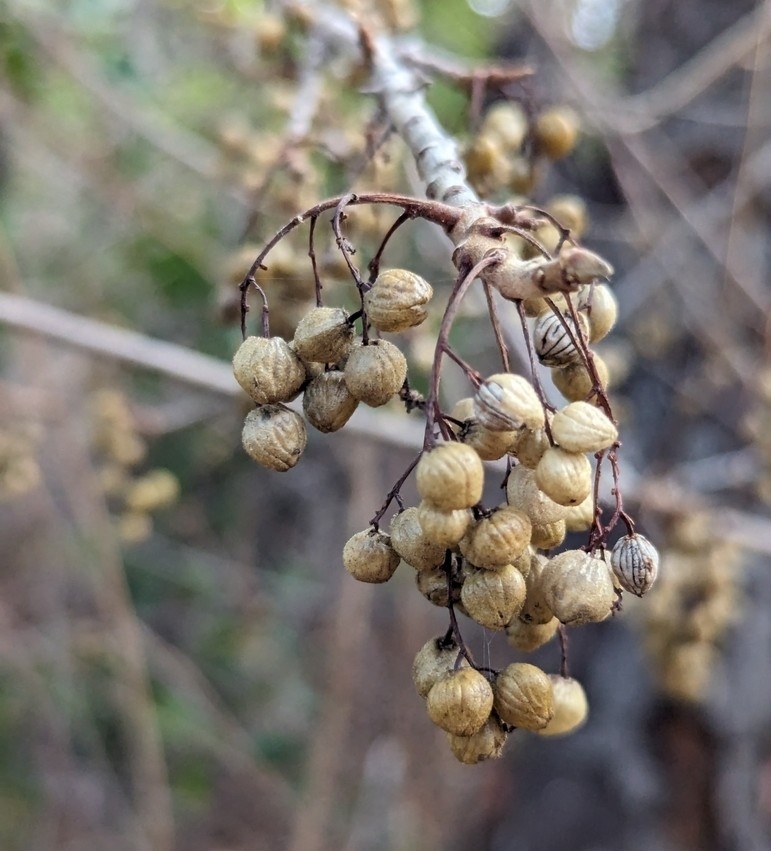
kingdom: Plantae
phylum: Tracheophyta
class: Magnoliopsida
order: Sapindales
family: Anacardiaceae
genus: Toxicodendron
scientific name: Toxicodendron diversilobum
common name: Pacific poison-oak
